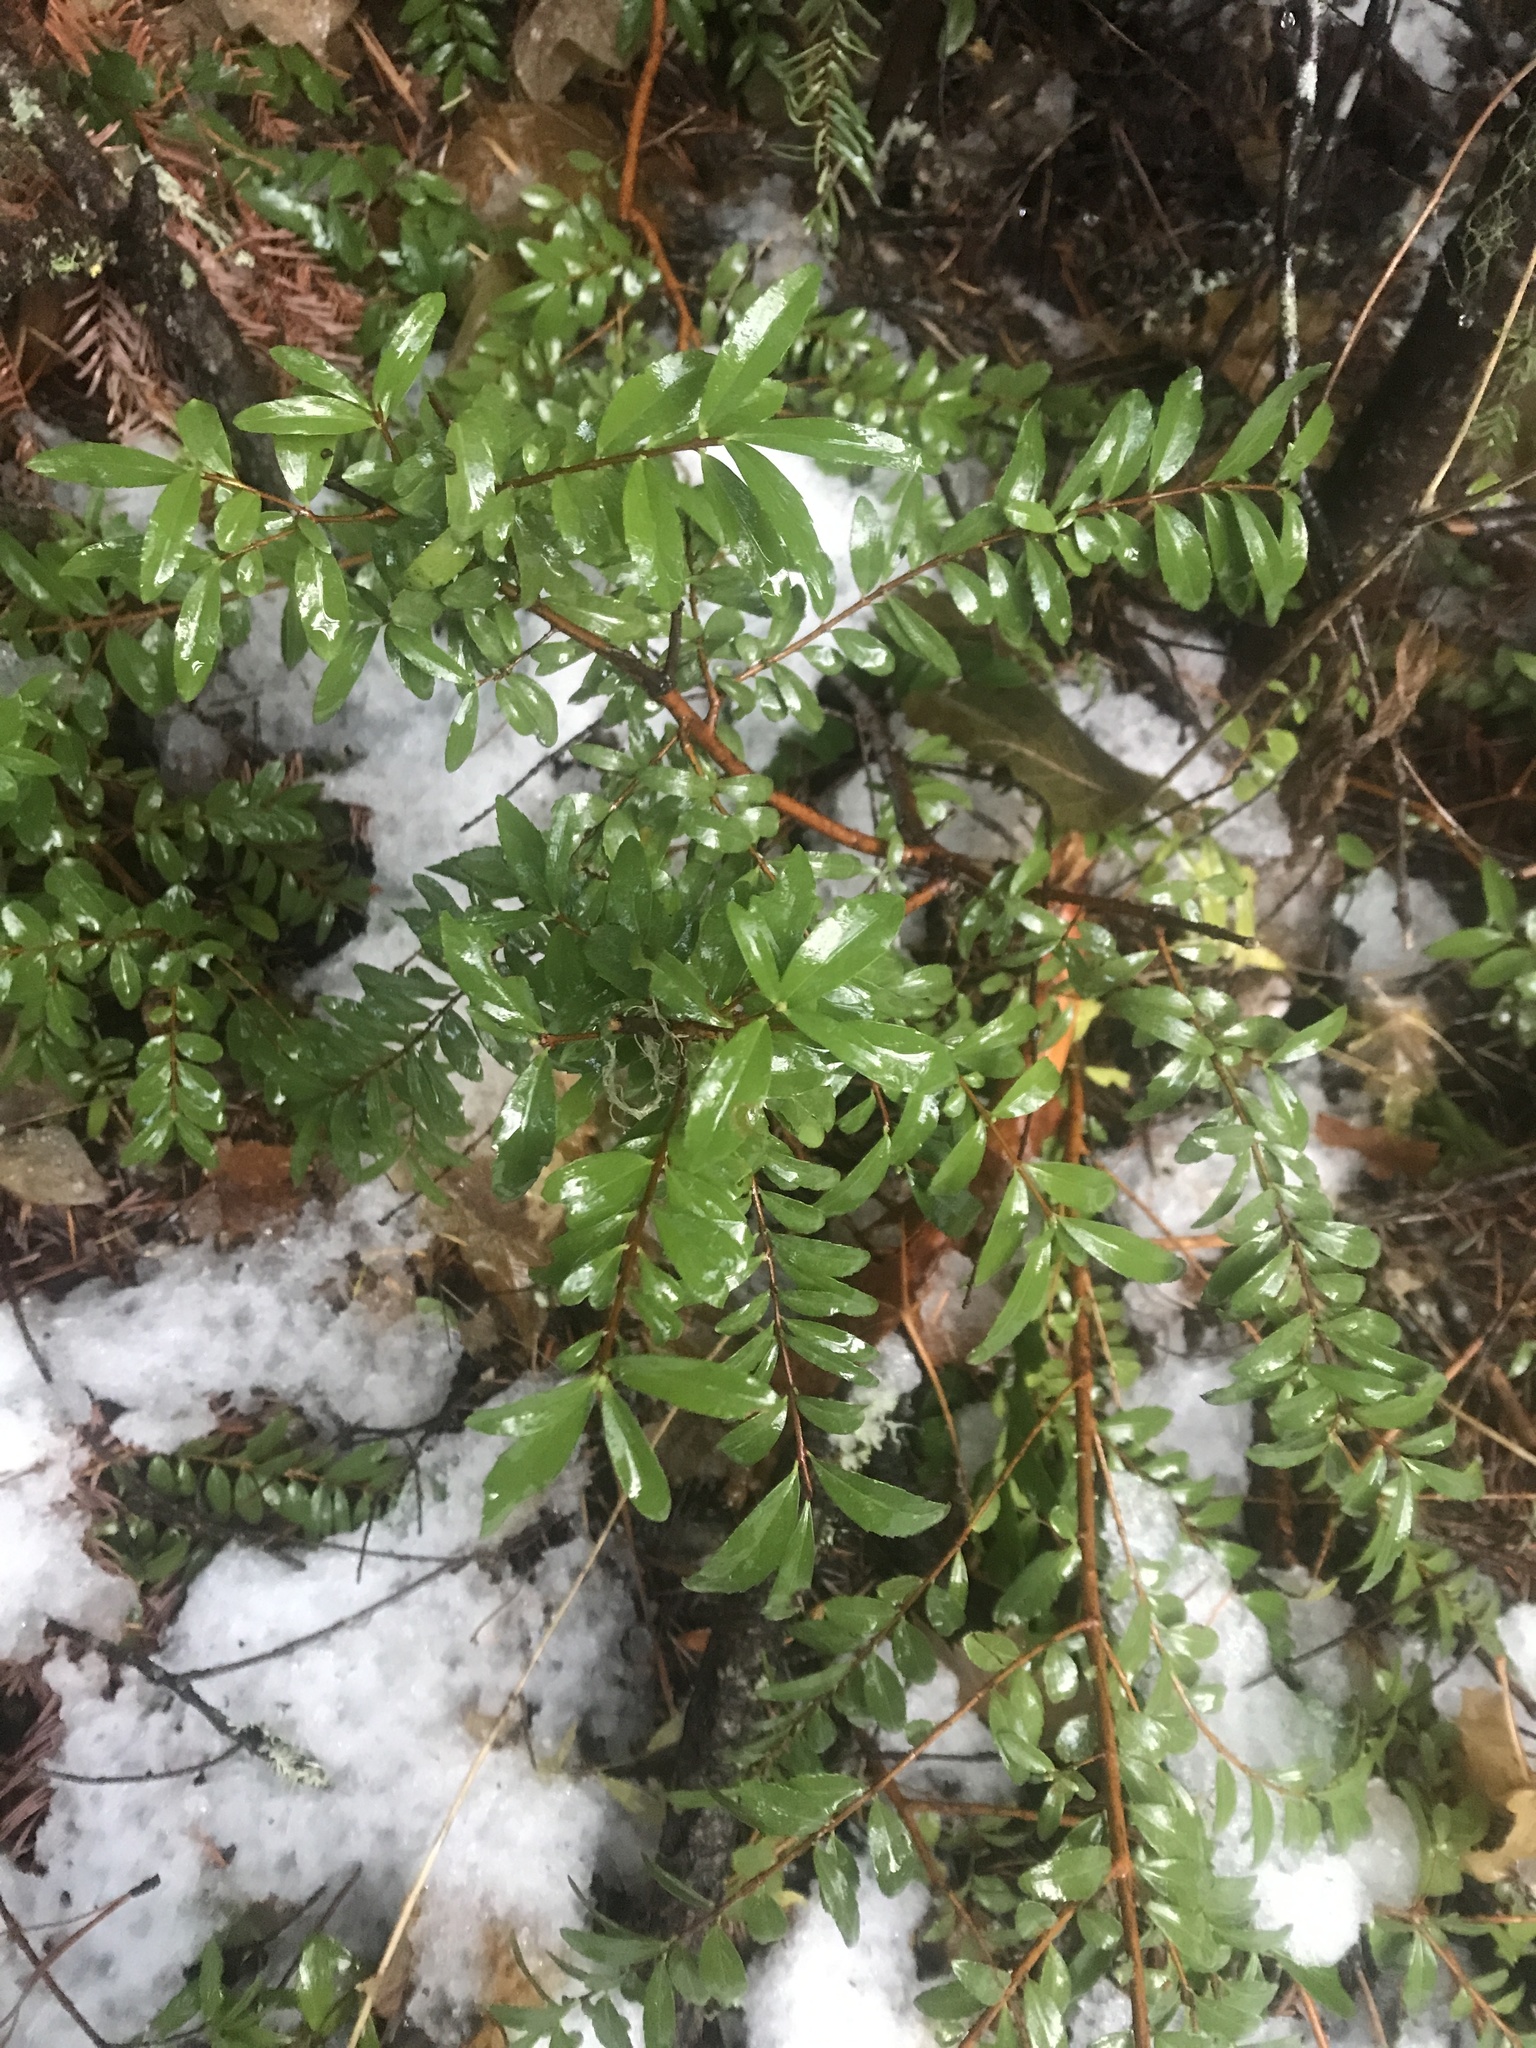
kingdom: Plantae
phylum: Tracheophyta
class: Magnoliopsida
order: Celastrales
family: Celastraceae
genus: Paxistima
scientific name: Paxistima myrsinites
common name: Mountain-lover
